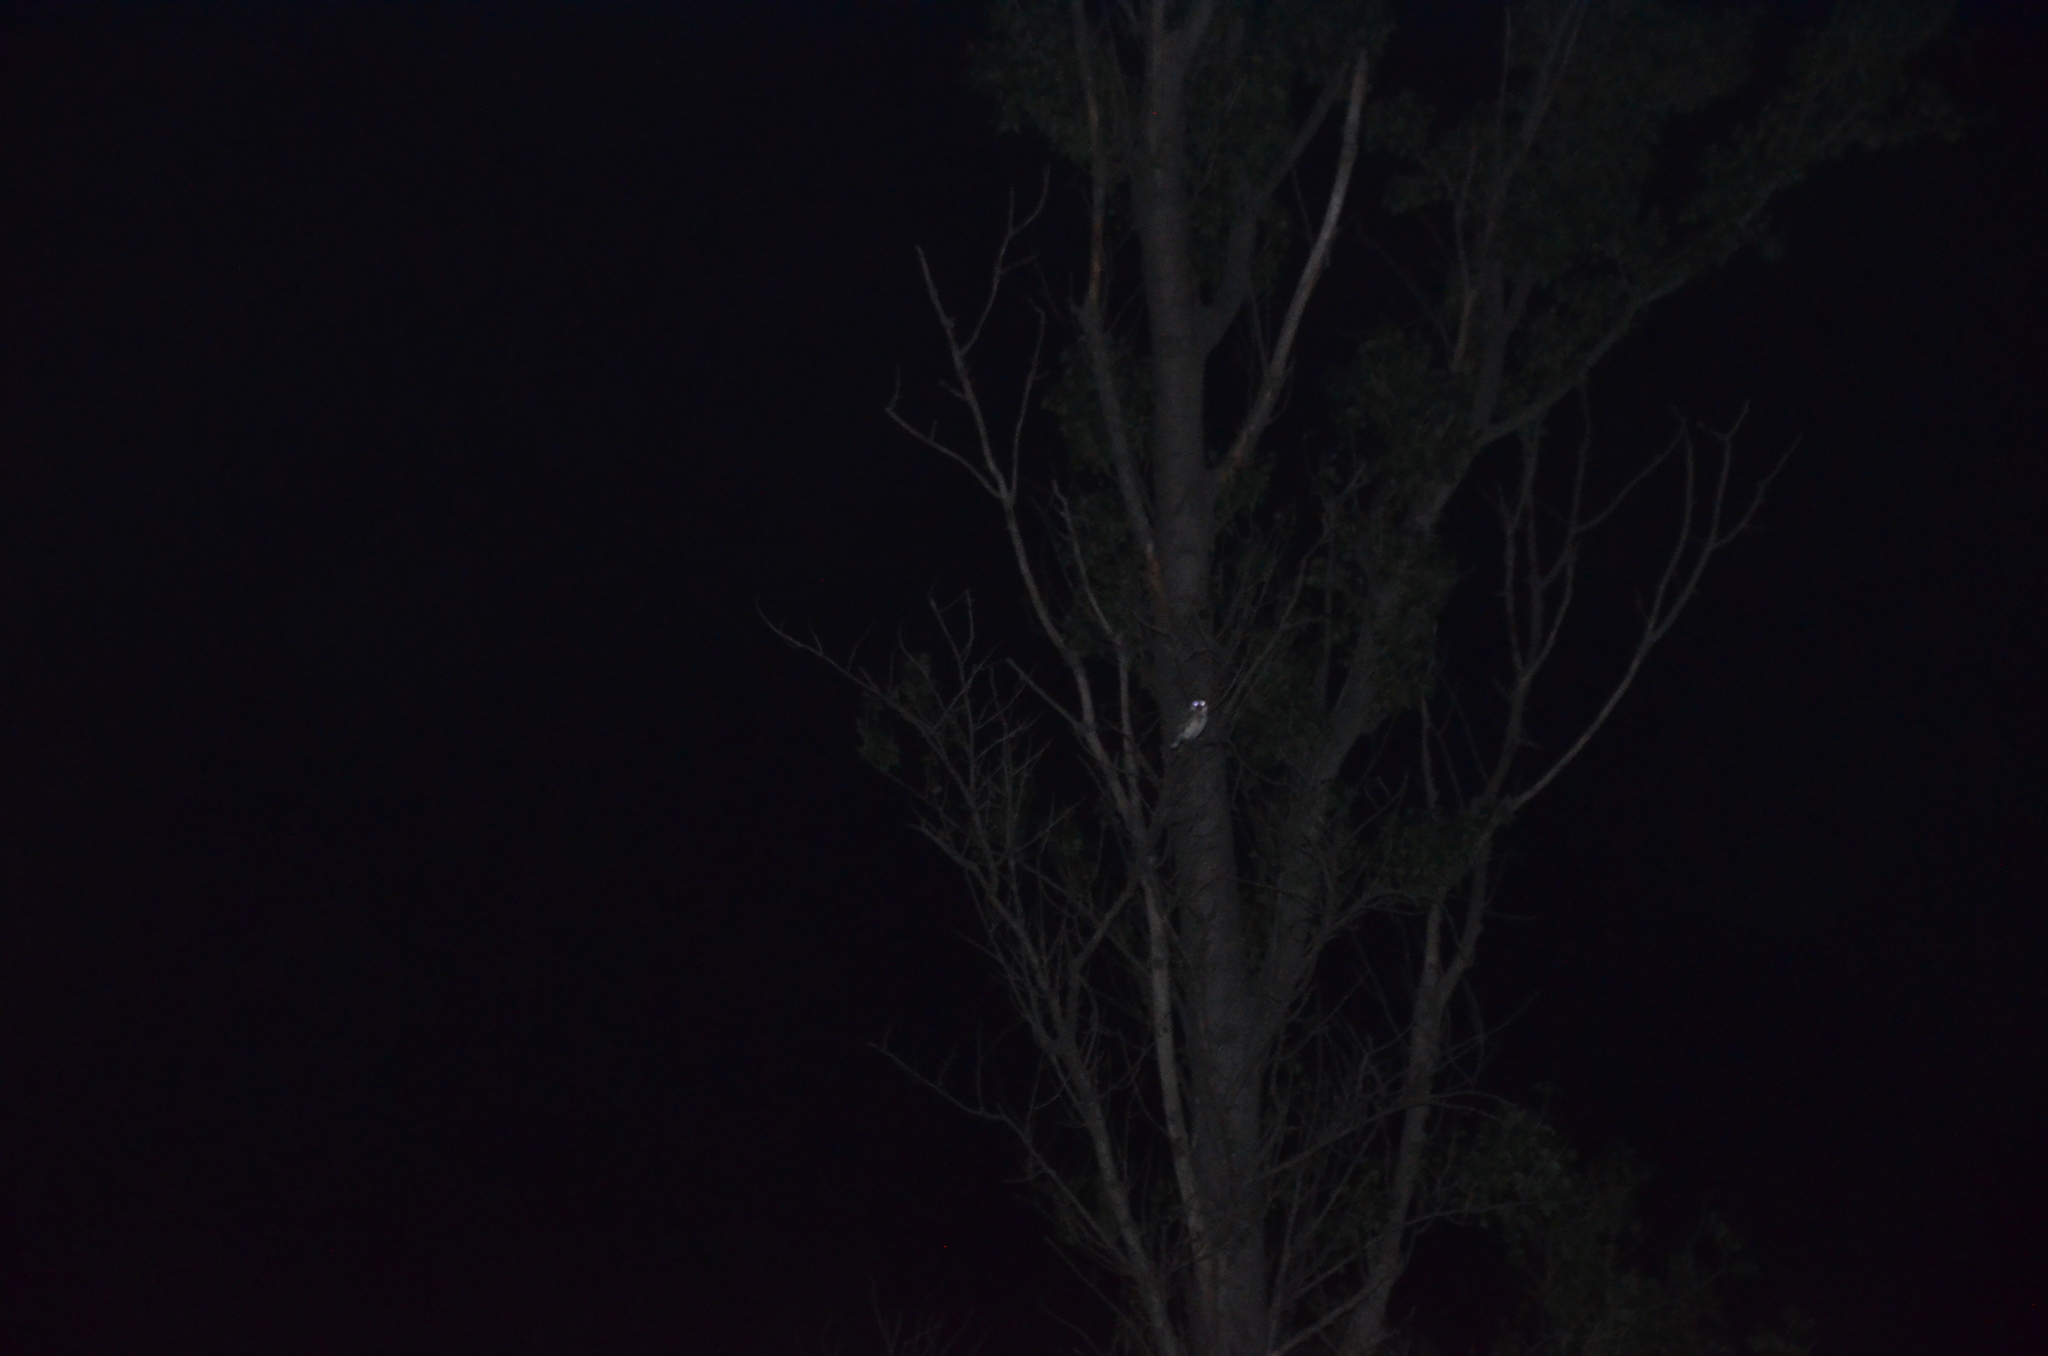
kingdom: Animalia
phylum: Chordata
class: Aves
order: Strigiformes
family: Strigidae
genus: Athene
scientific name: Athene cunicularia
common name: Burrowing owl
